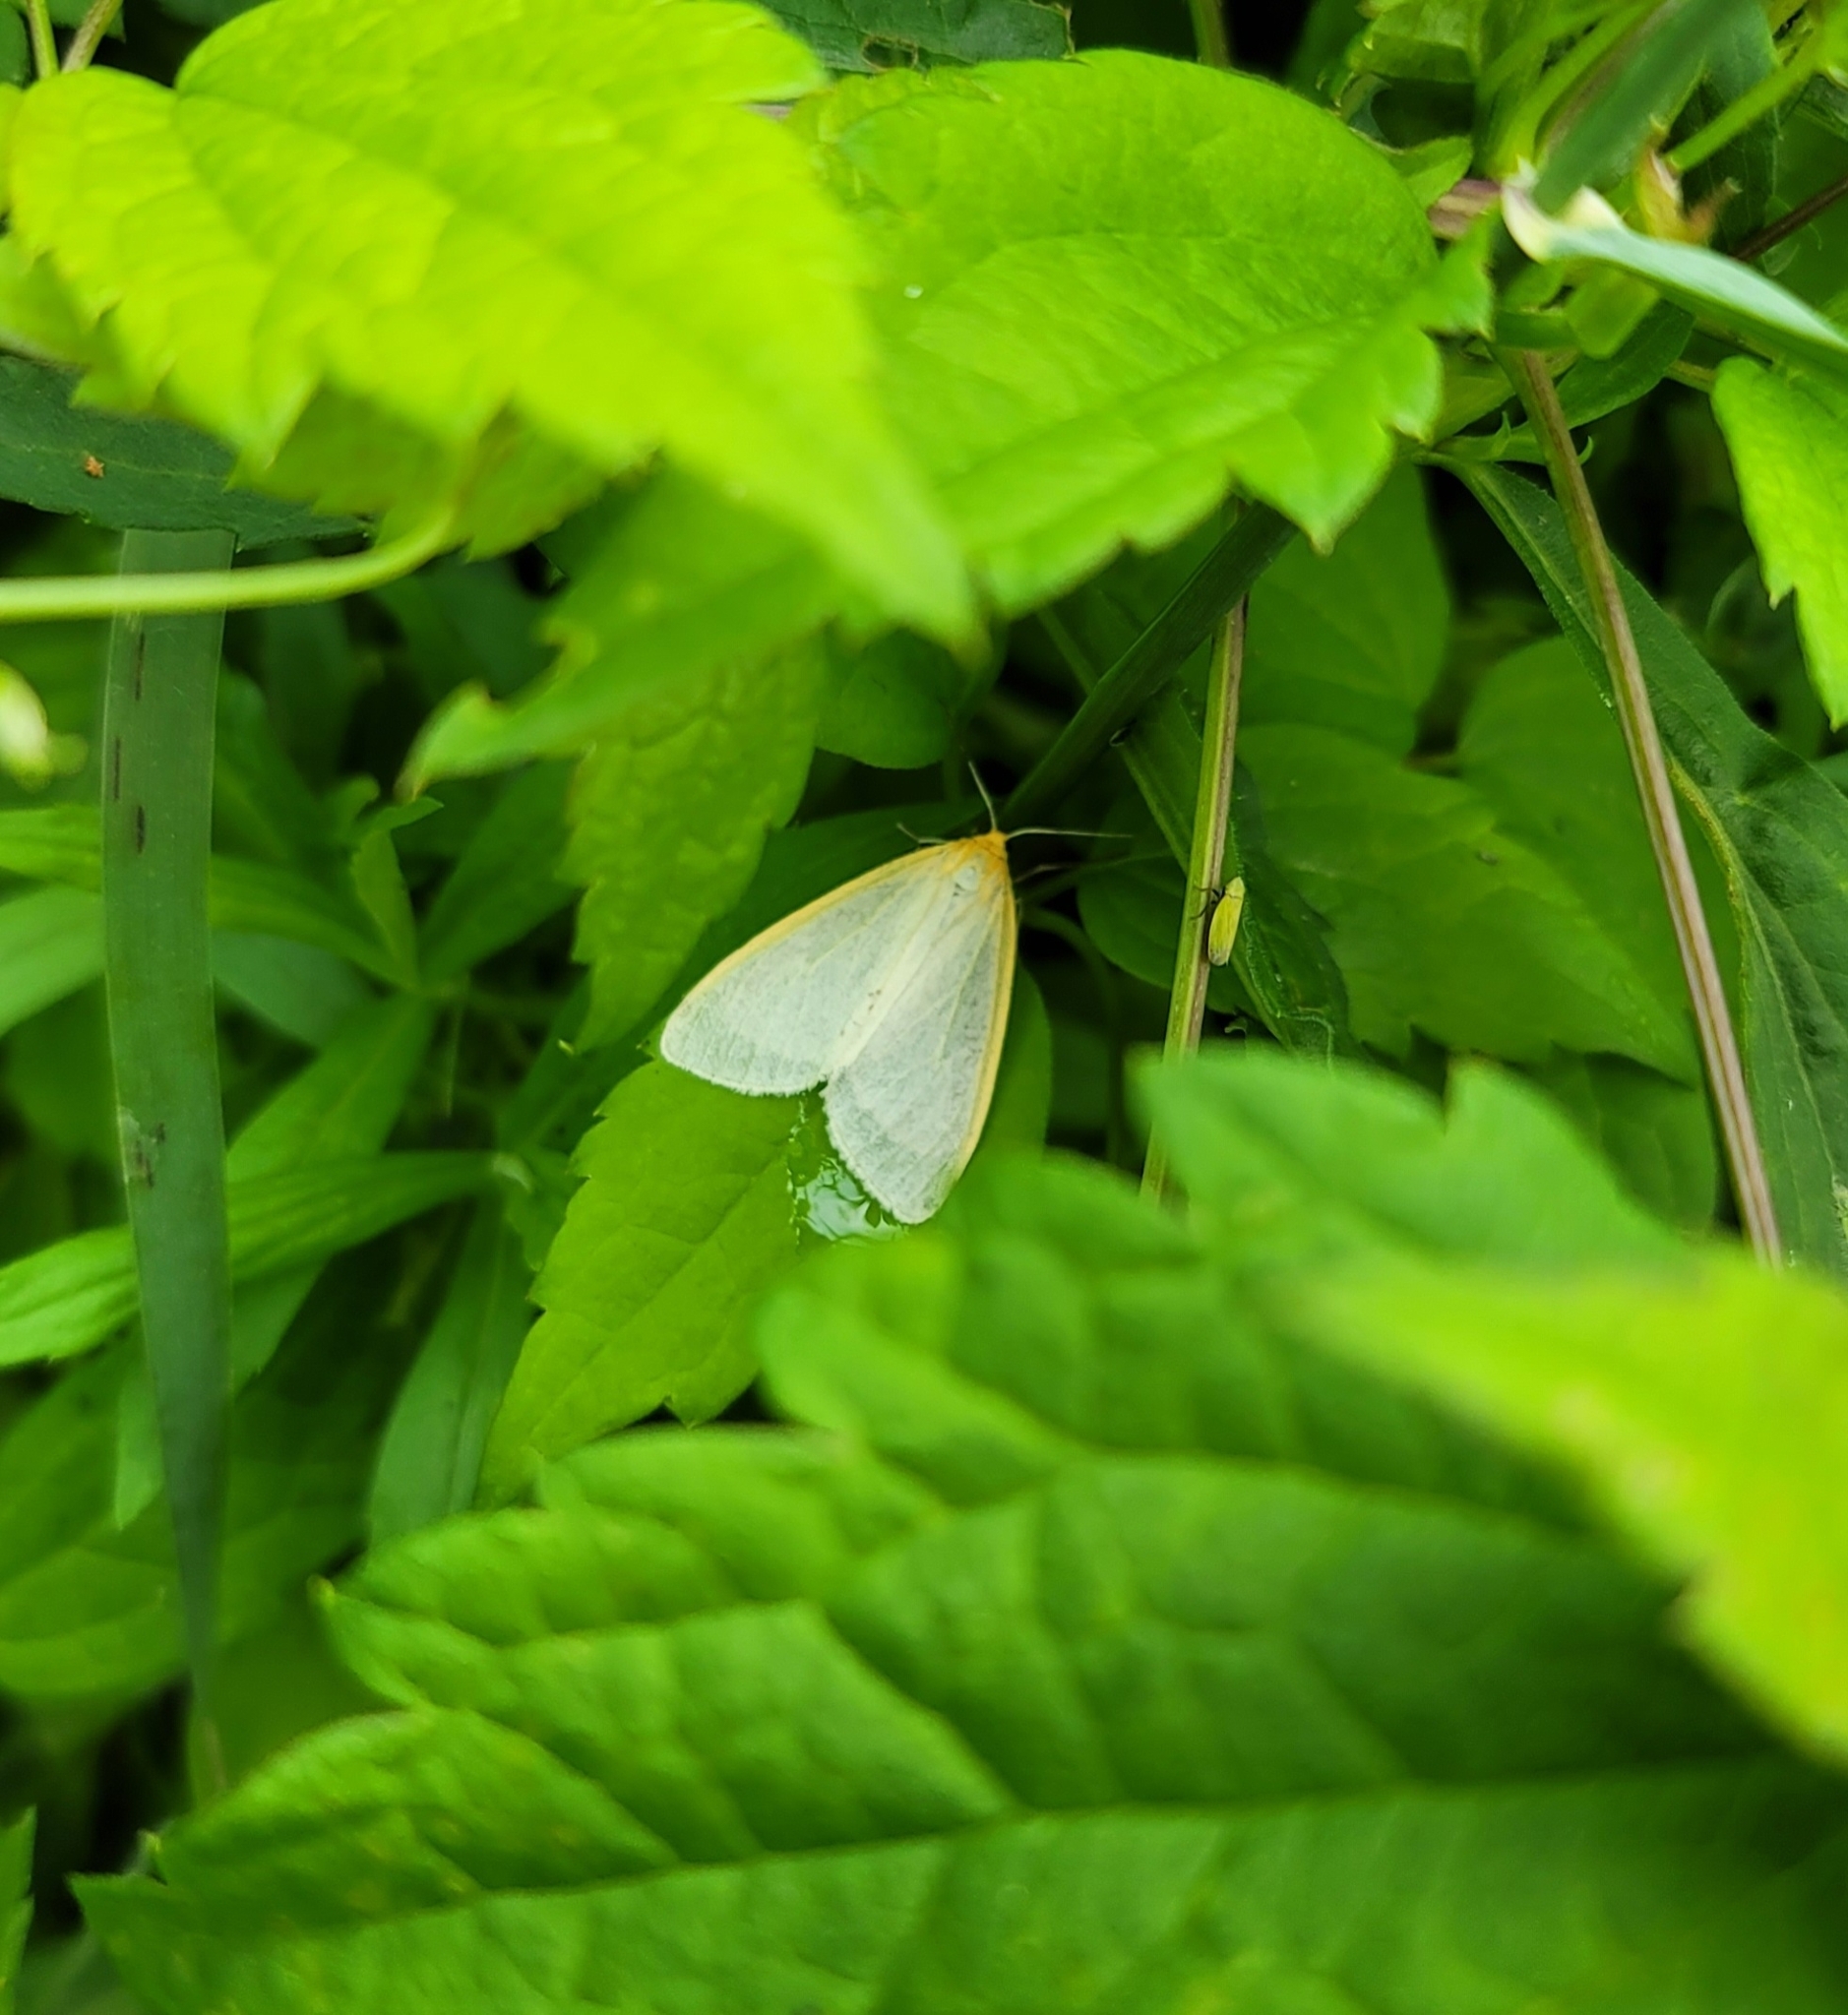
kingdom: Animalia
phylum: Arthropoda
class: Insecta
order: Lepidoptera
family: Erebidae
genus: Cycnia
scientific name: Cycnia tenera
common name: Delicate cycnia moth
